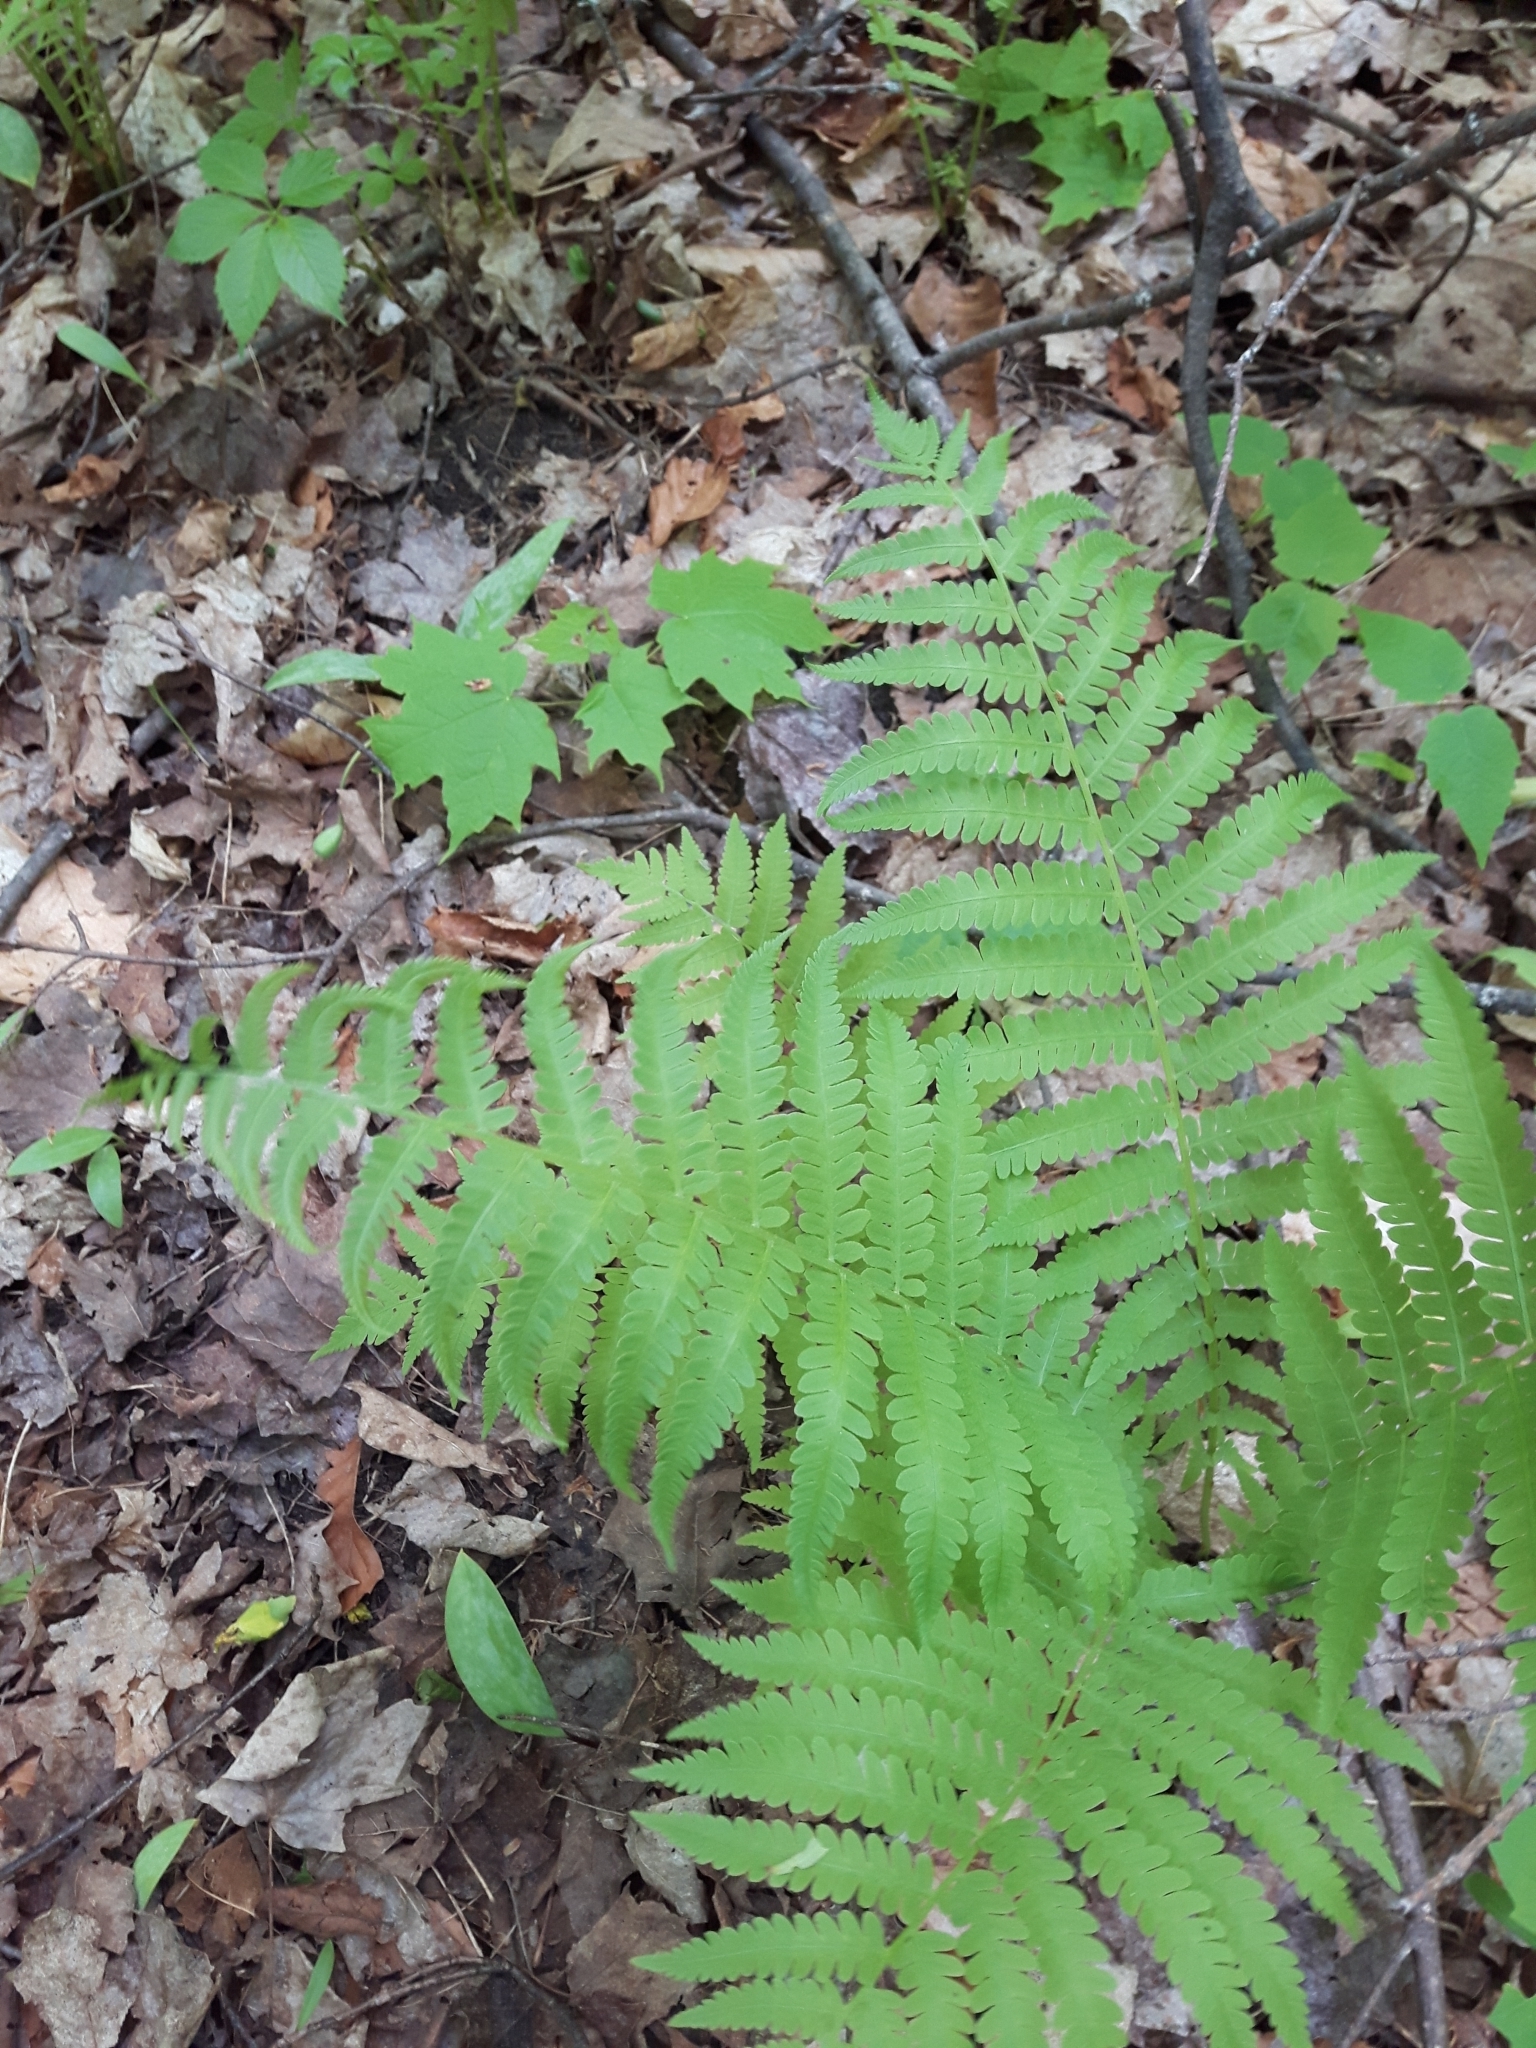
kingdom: Plantae
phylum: Tracheophyta
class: Polypodiopsida
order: Polypodiales
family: Thelypteridaceae
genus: Amauropelta
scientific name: Amauropelta noveboracensis
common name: New york fern
